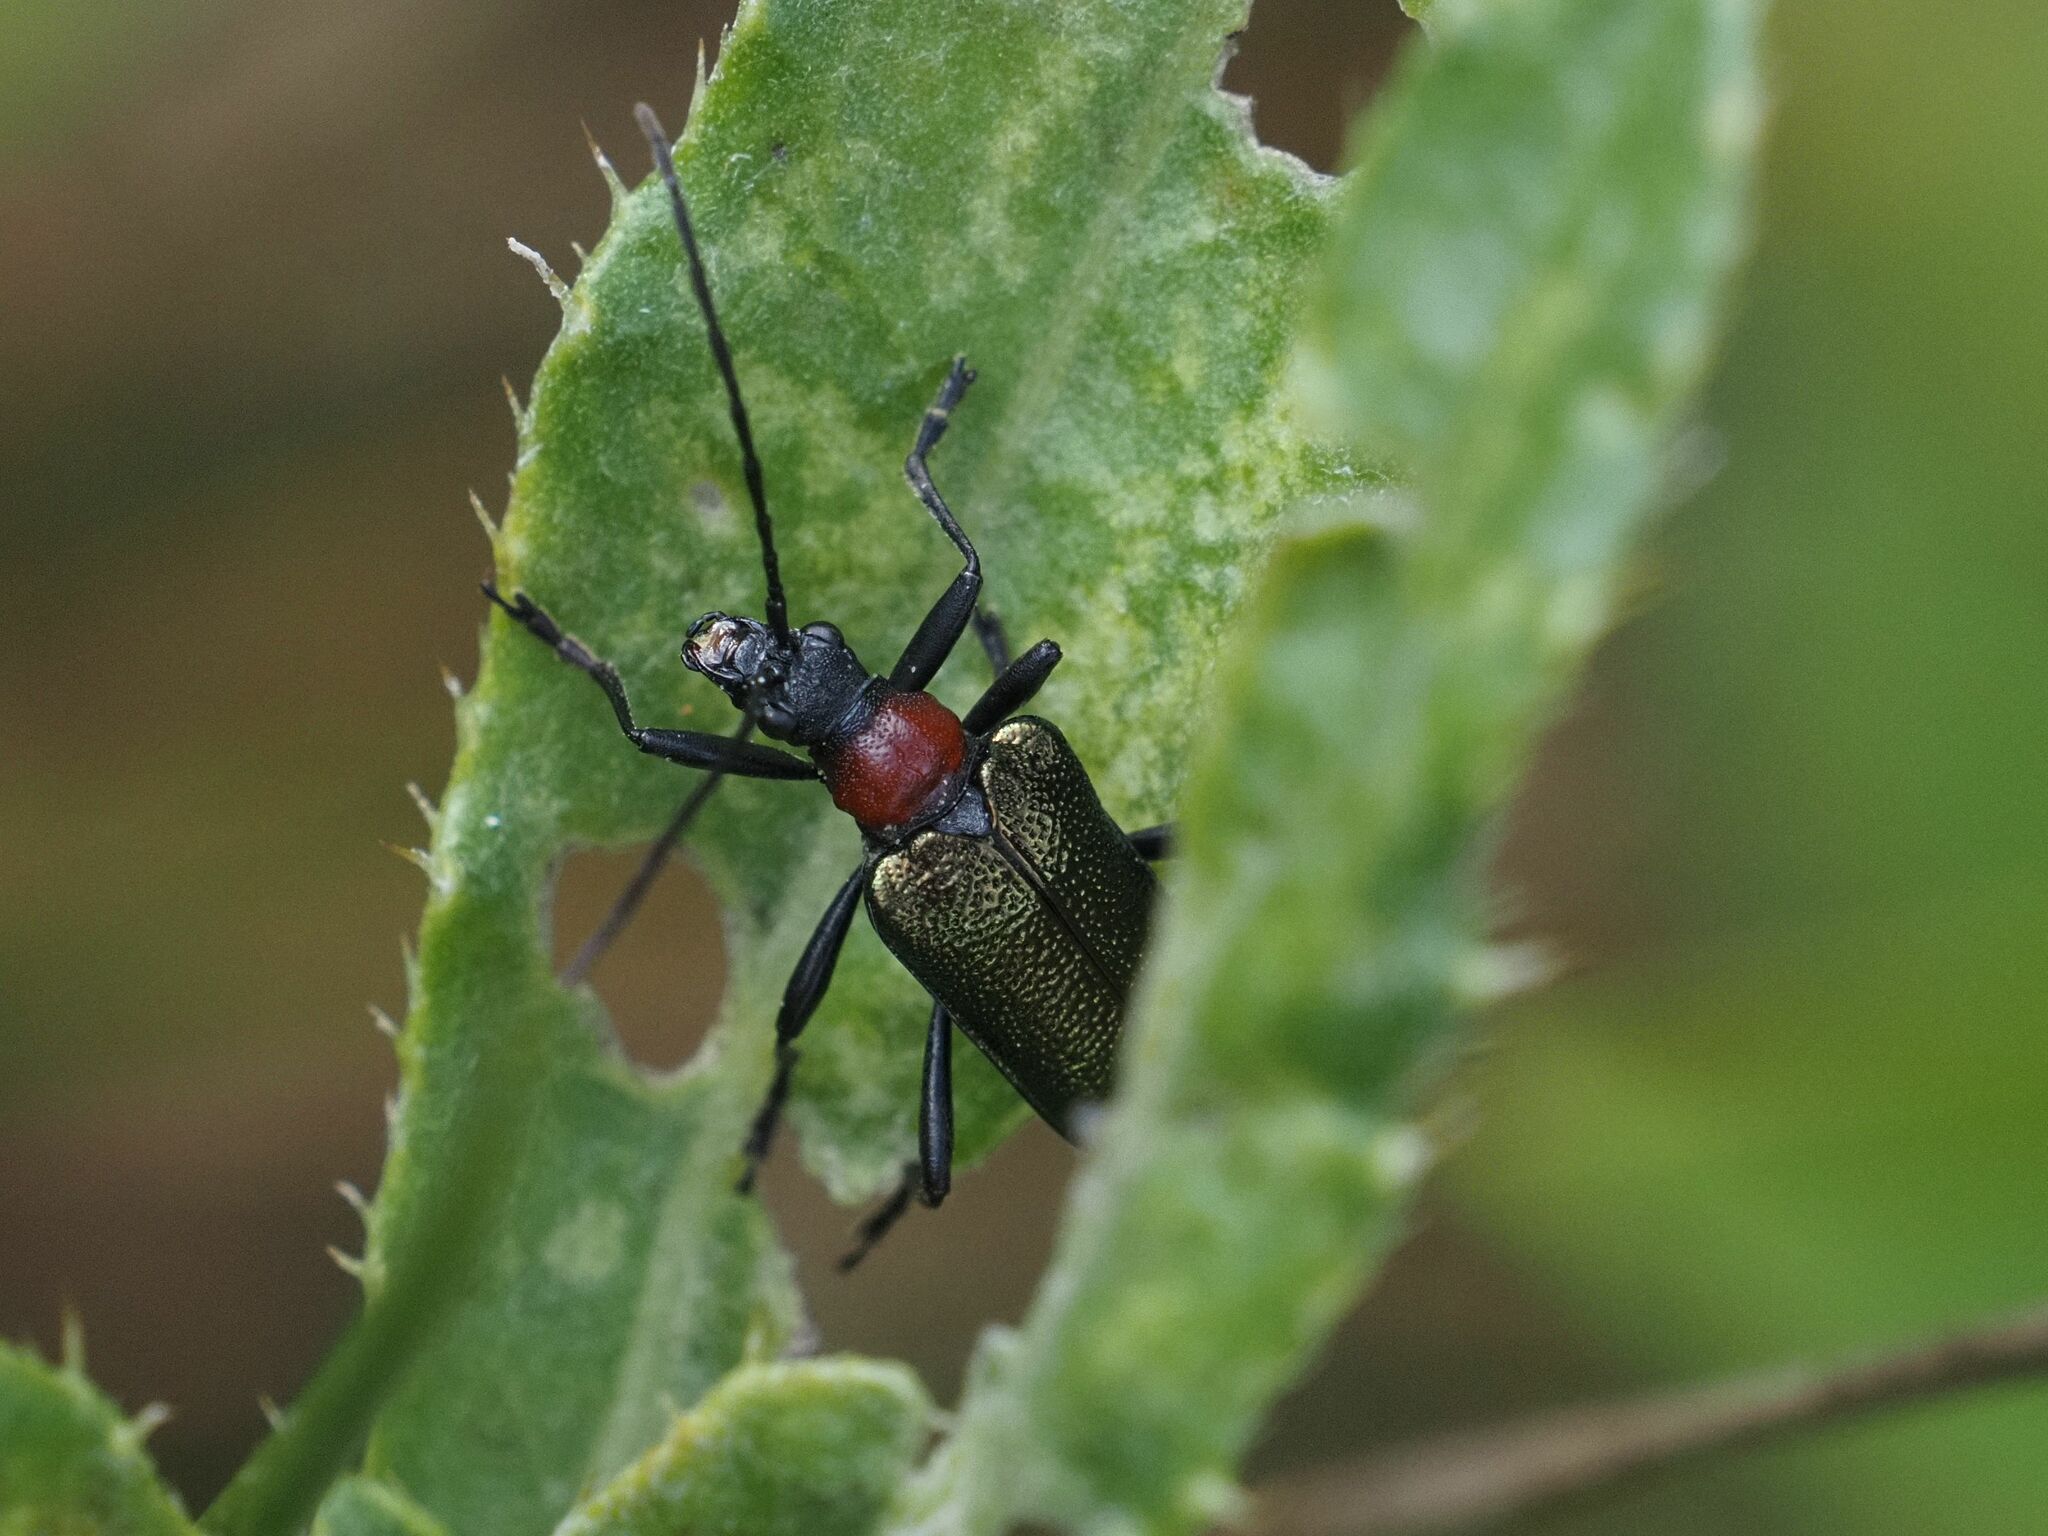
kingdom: Animalia
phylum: Arthropoda
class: Insecta
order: Coleoptera
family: Cerambycidae
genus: Gaurotes
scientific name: Gaurotes virginea
